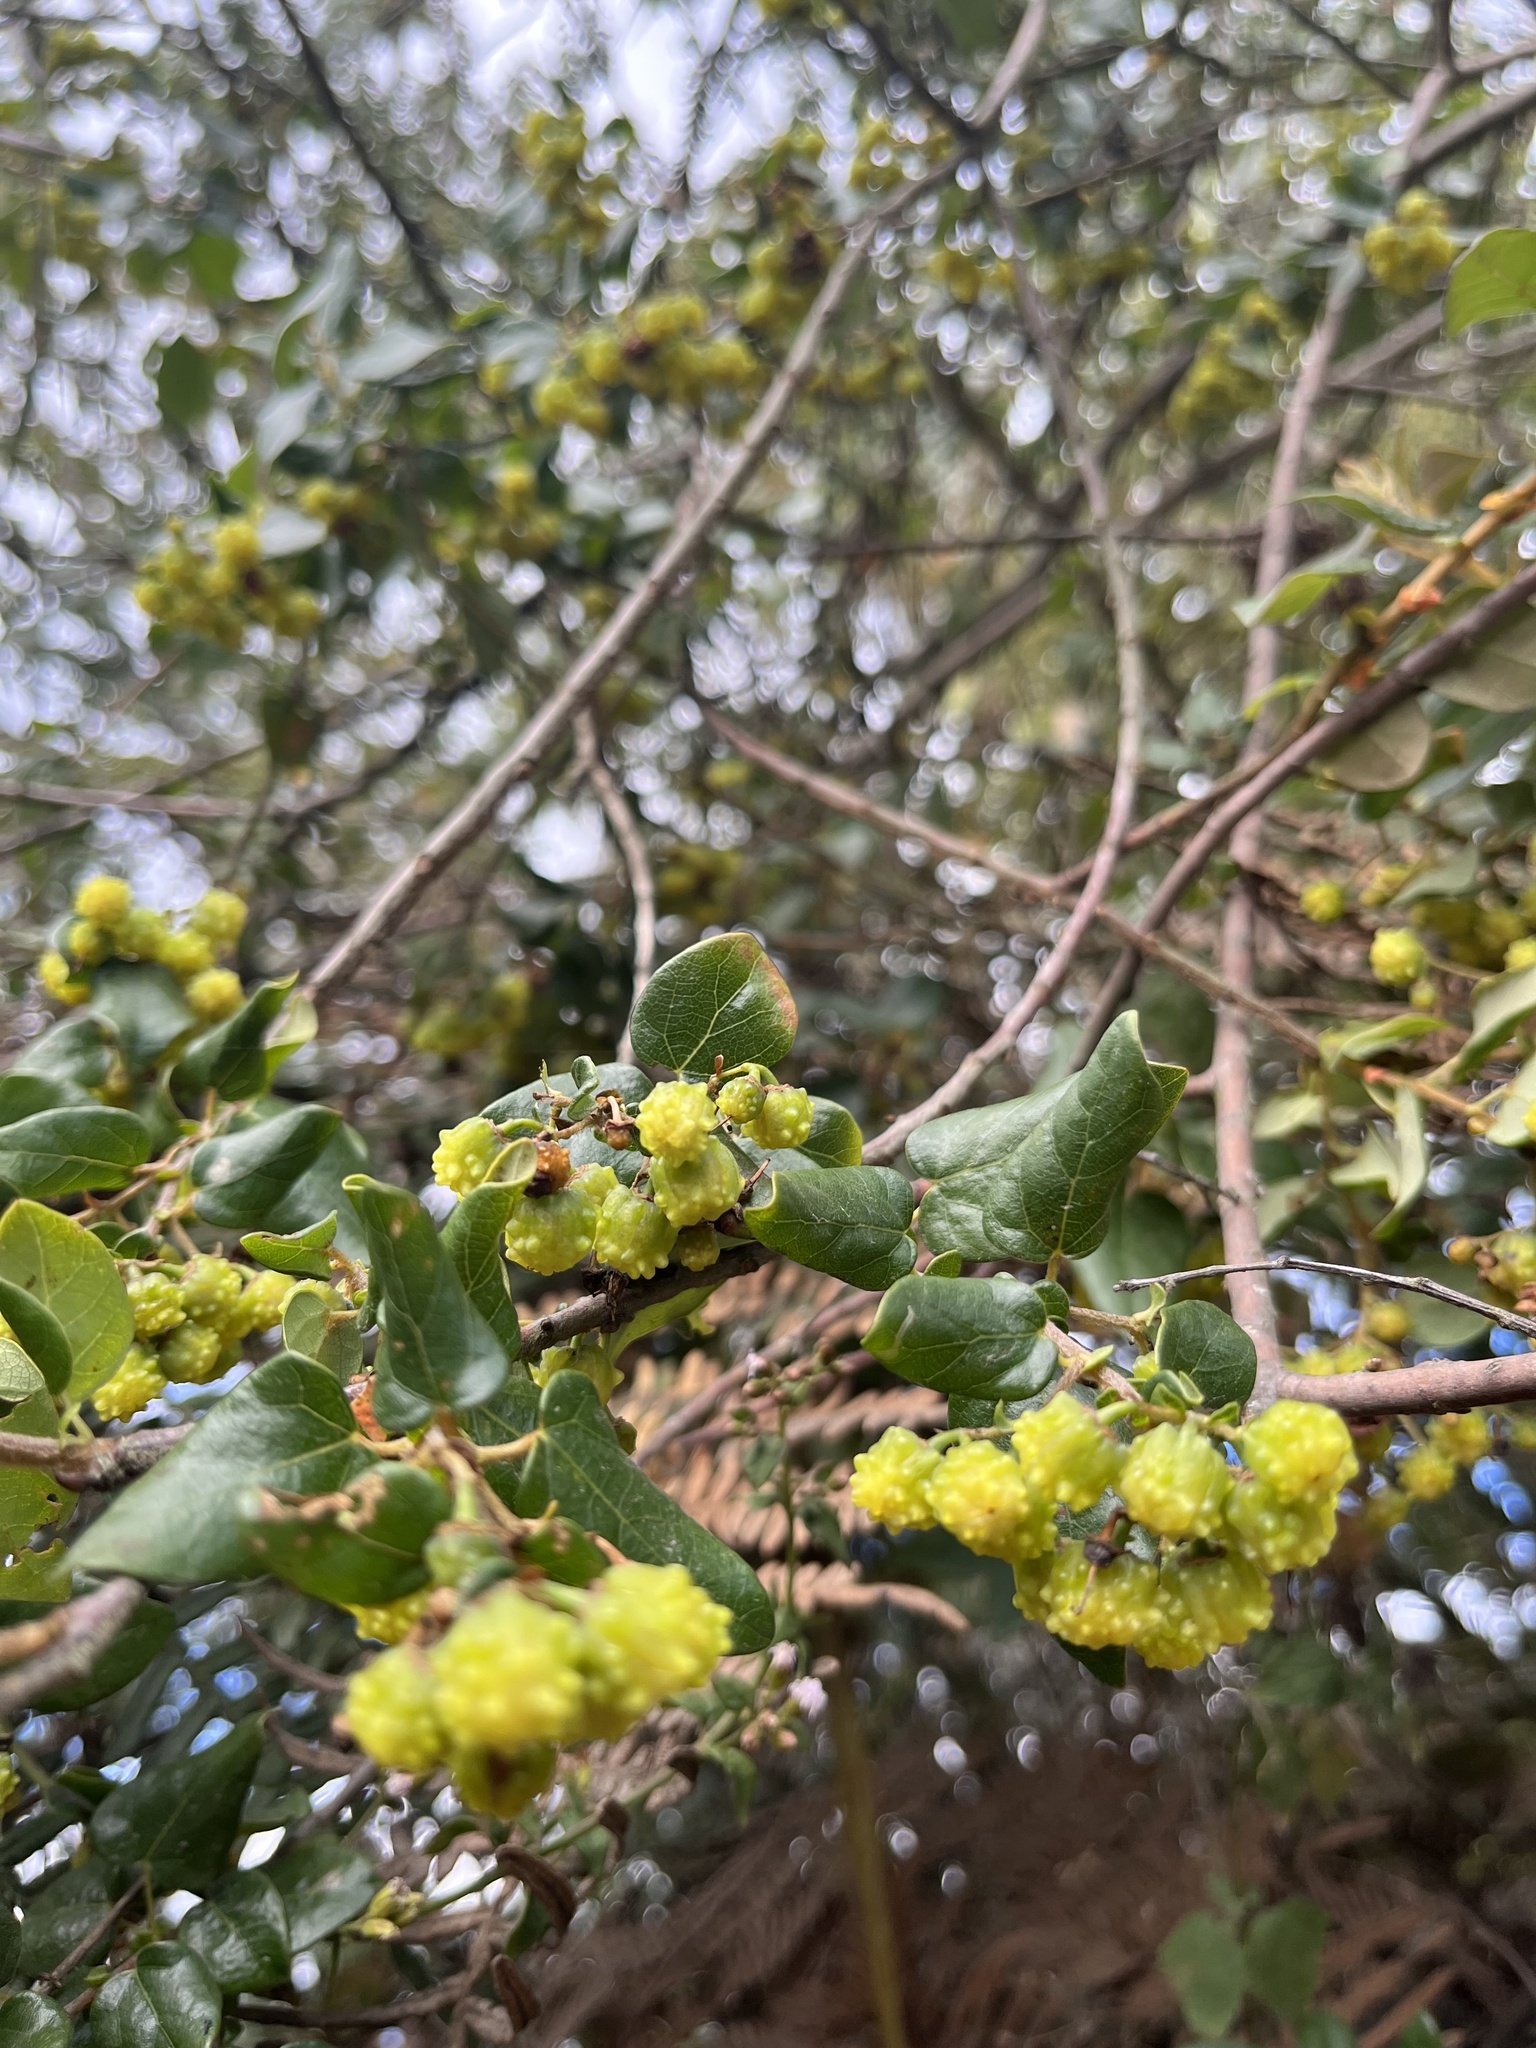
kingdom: Plantae
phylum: Tracheophyta
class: Magnoliopsida
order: Oxalidales
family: Elaeocarpaceae
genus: Vallea
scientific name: Vallea stipularis
